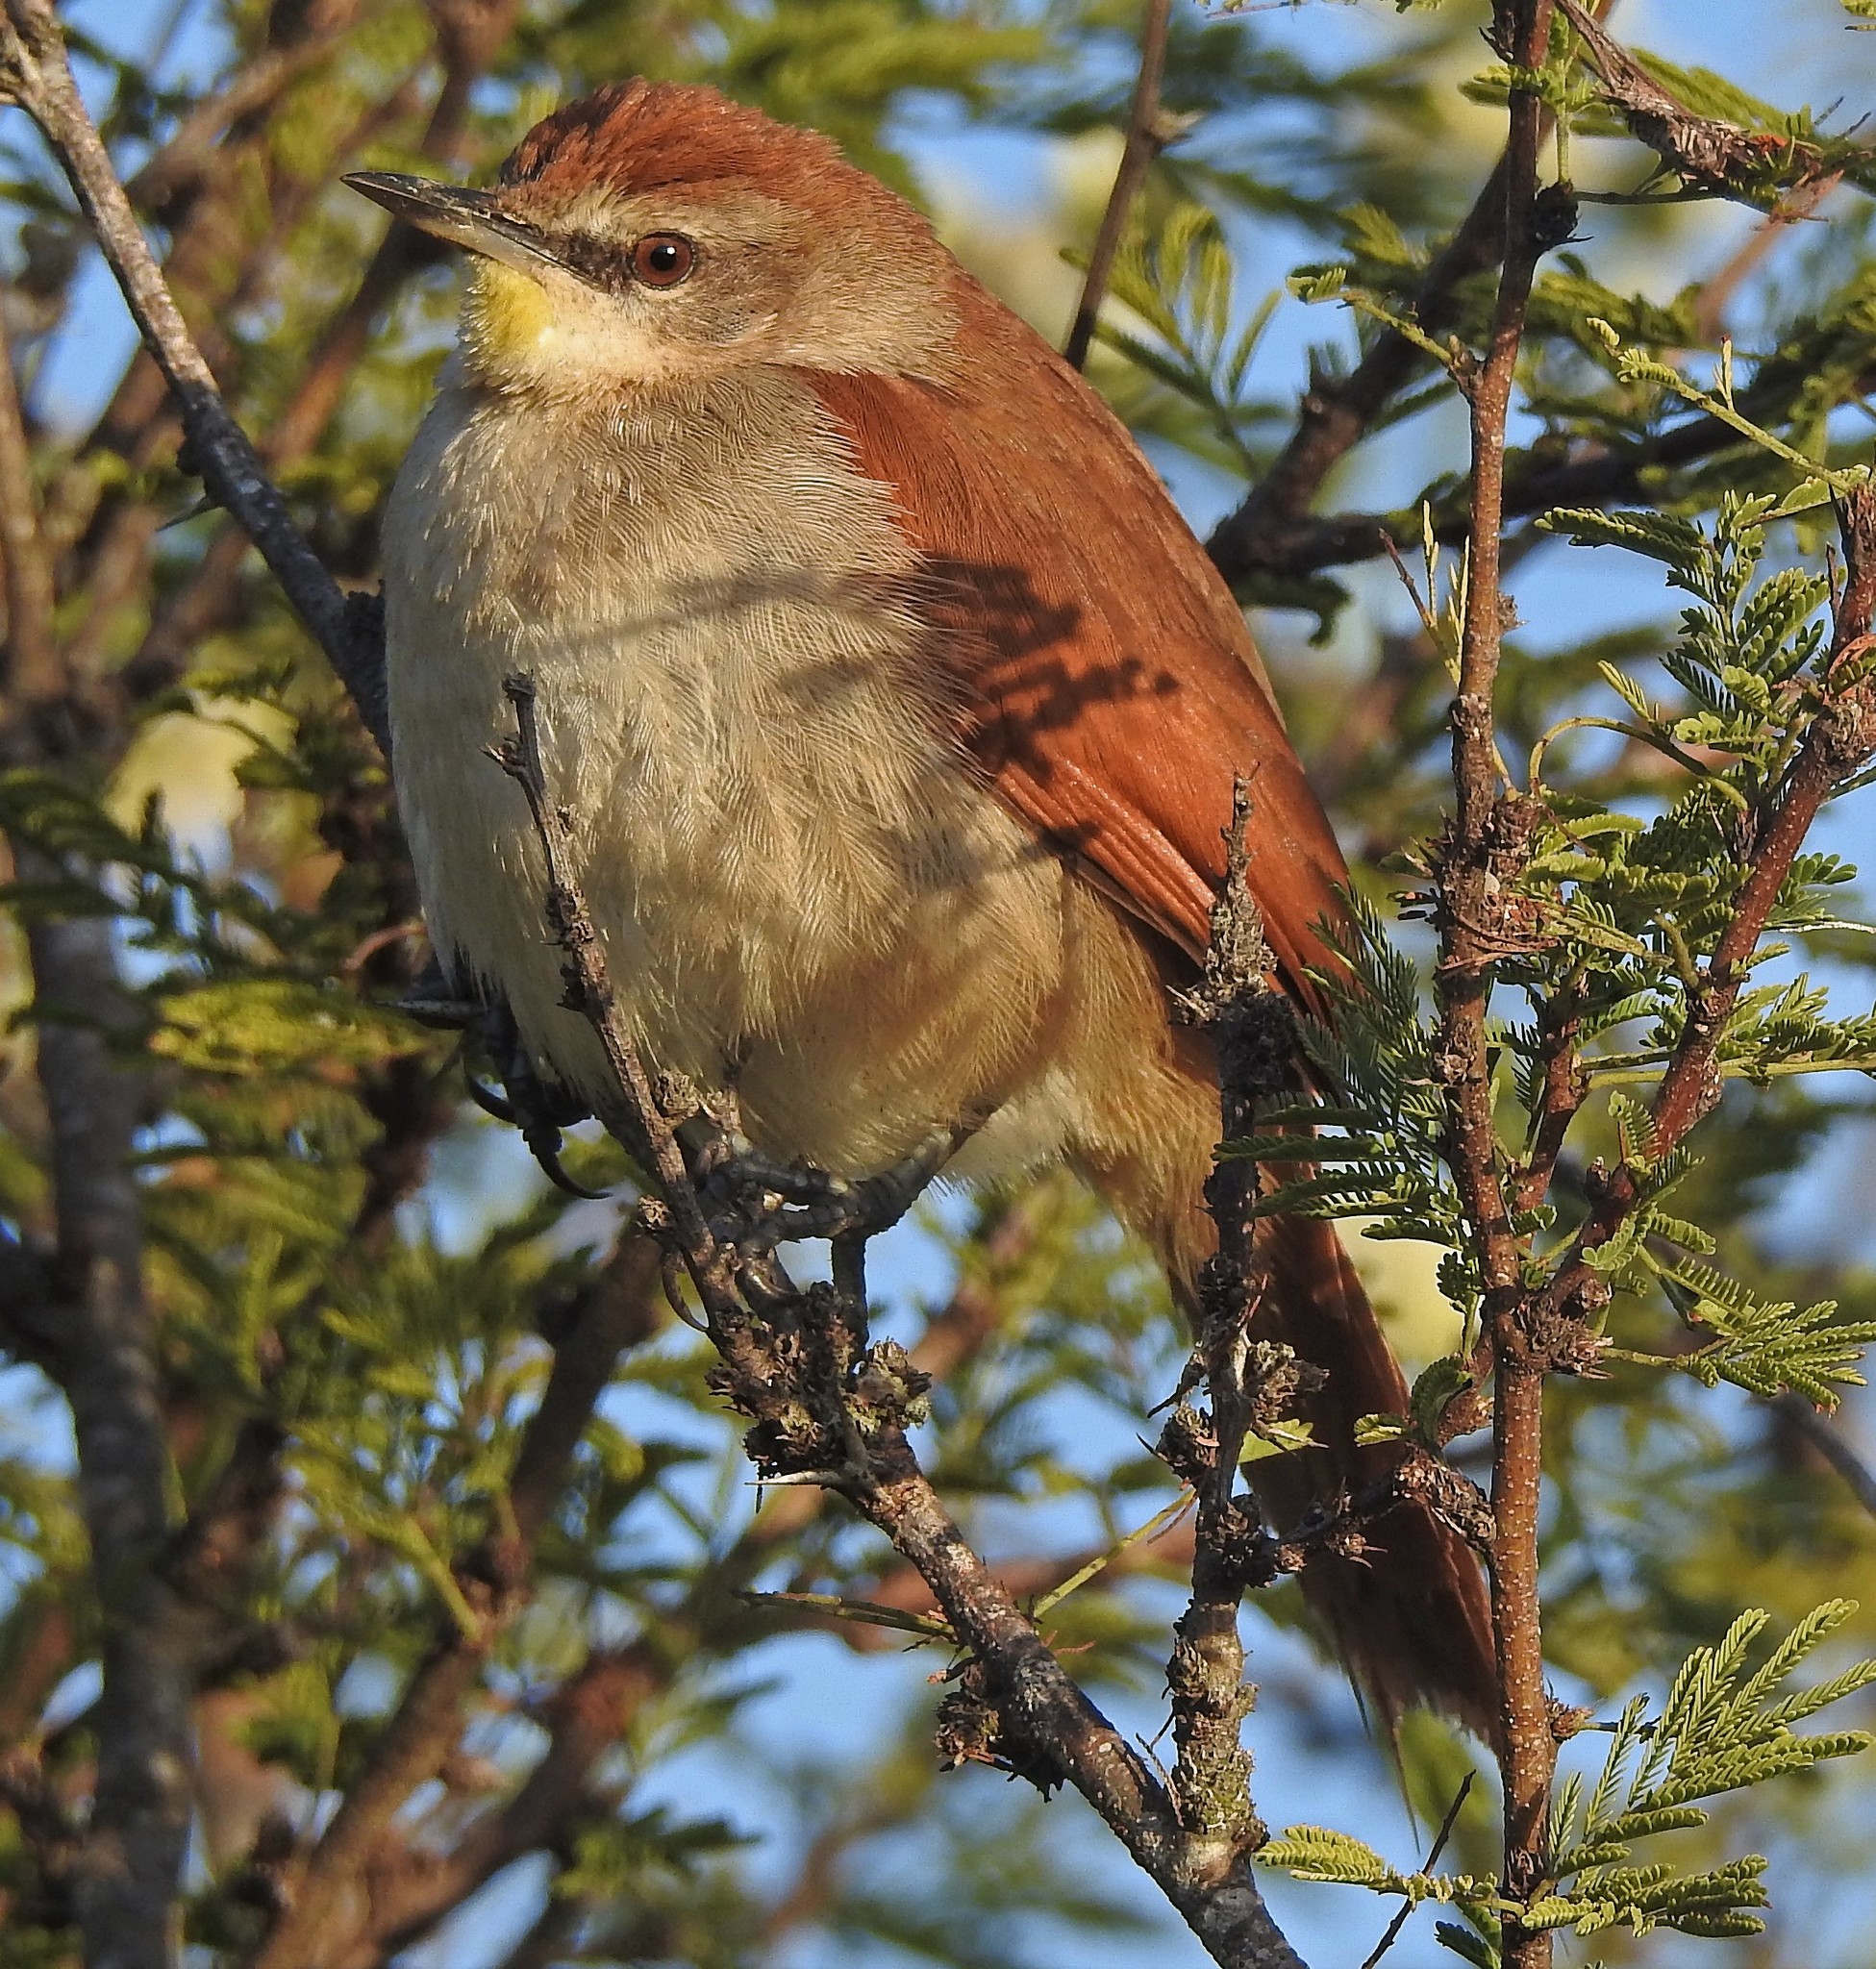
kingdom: Animalia
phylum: Chordata
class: Aves
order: Passeriformes
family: Furnariidae
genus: Certhiaxis
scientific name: Certhiaxis cinnamomeus
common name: Yellow-chinned spinetail
